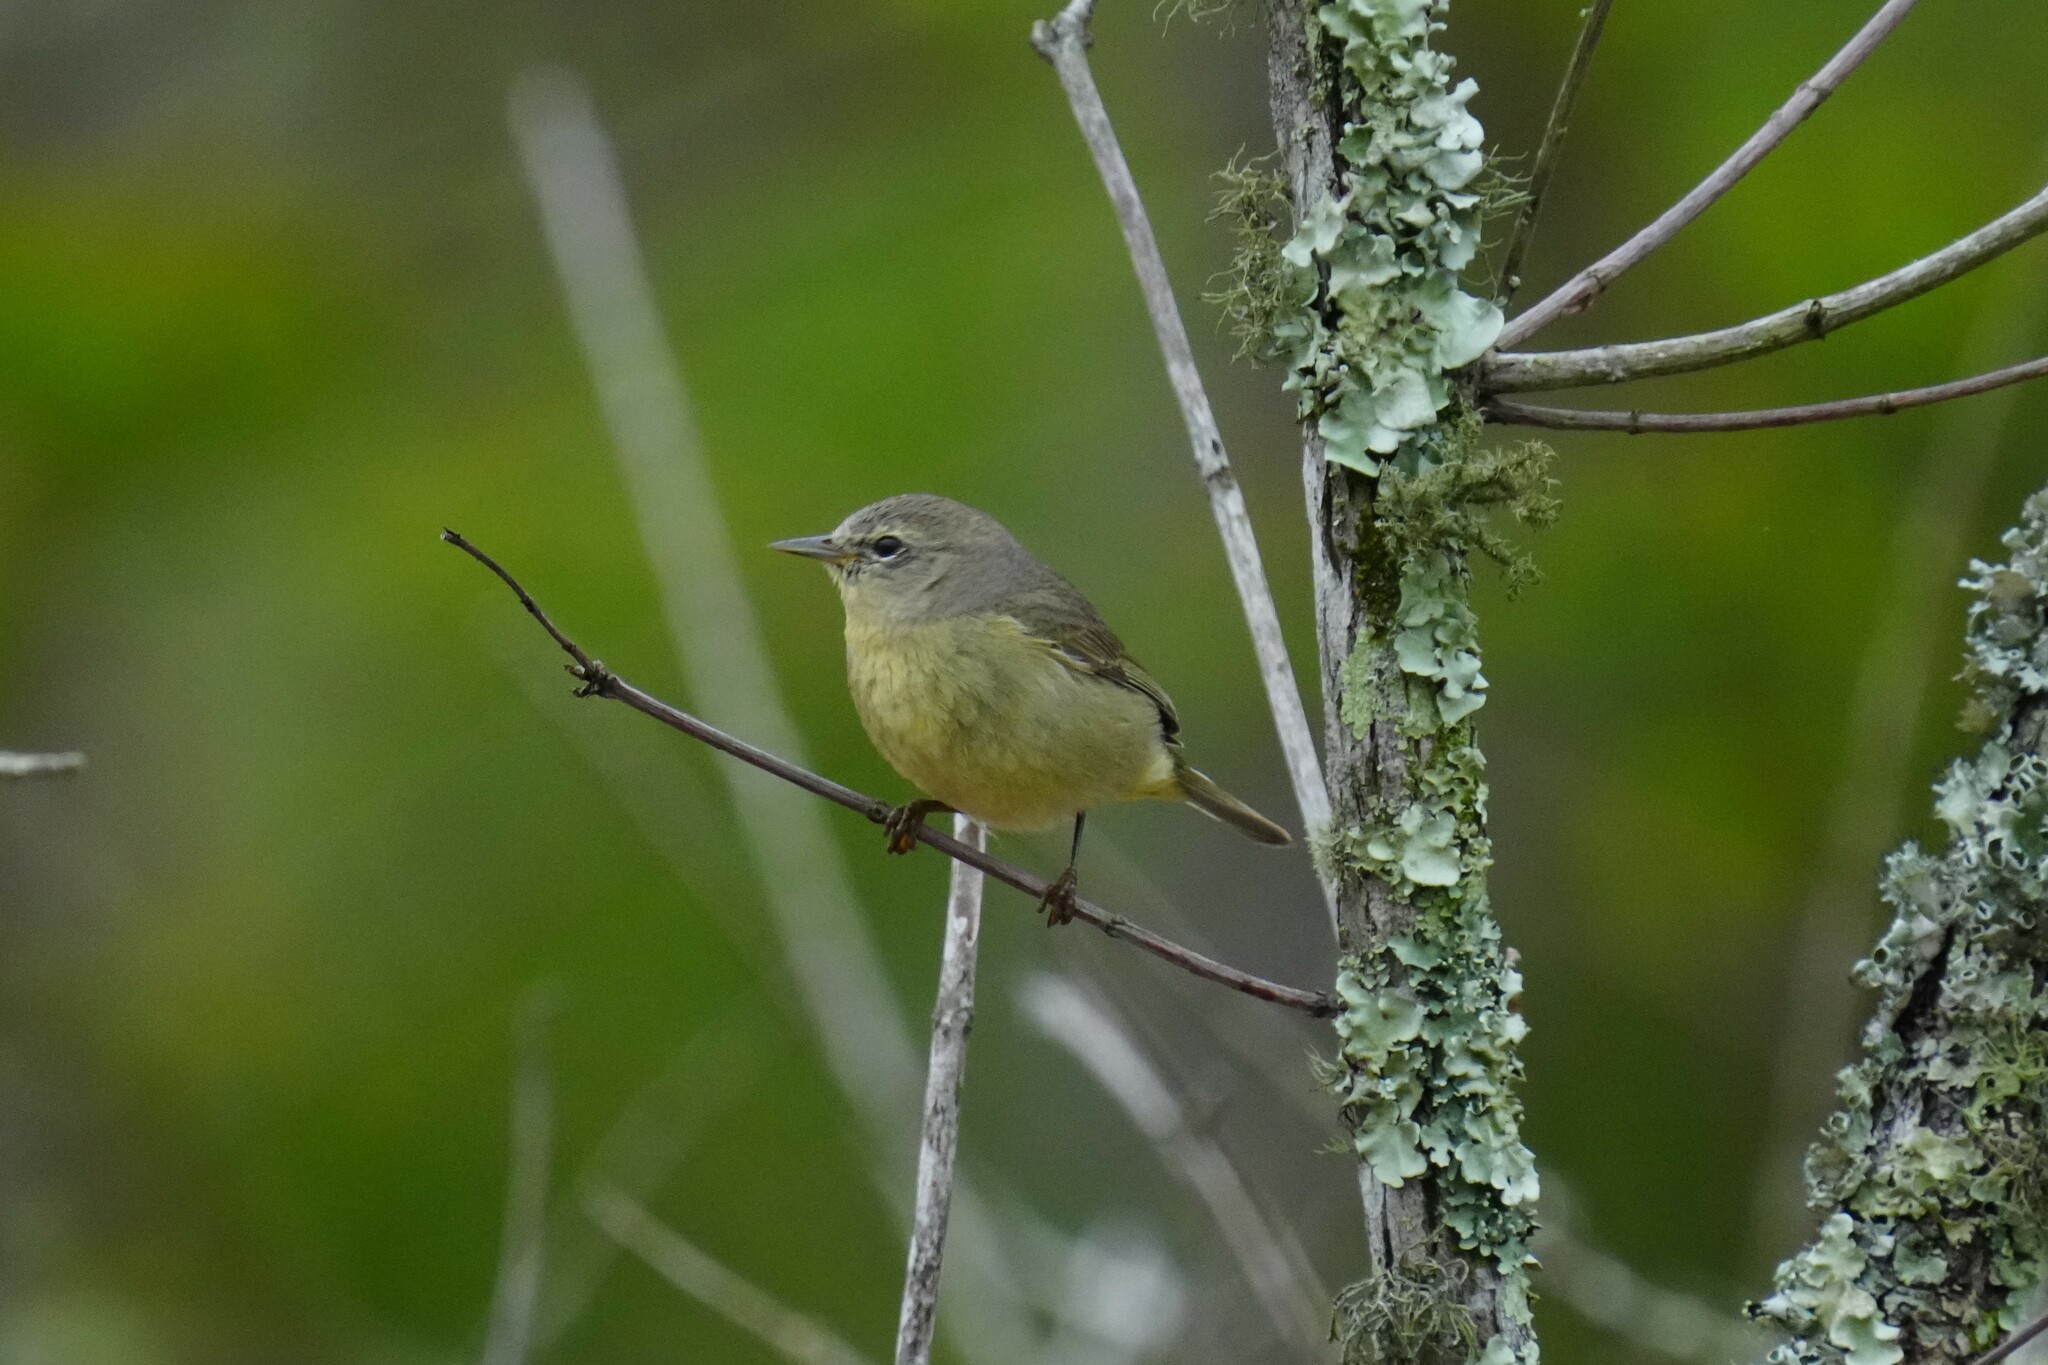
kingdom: Animalia
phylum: Chordata
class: Aves
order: Passeriformes
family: Parulidae
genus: Leiothlypis
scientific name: Leiothlypis celata
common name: Orange-crowned warbler
